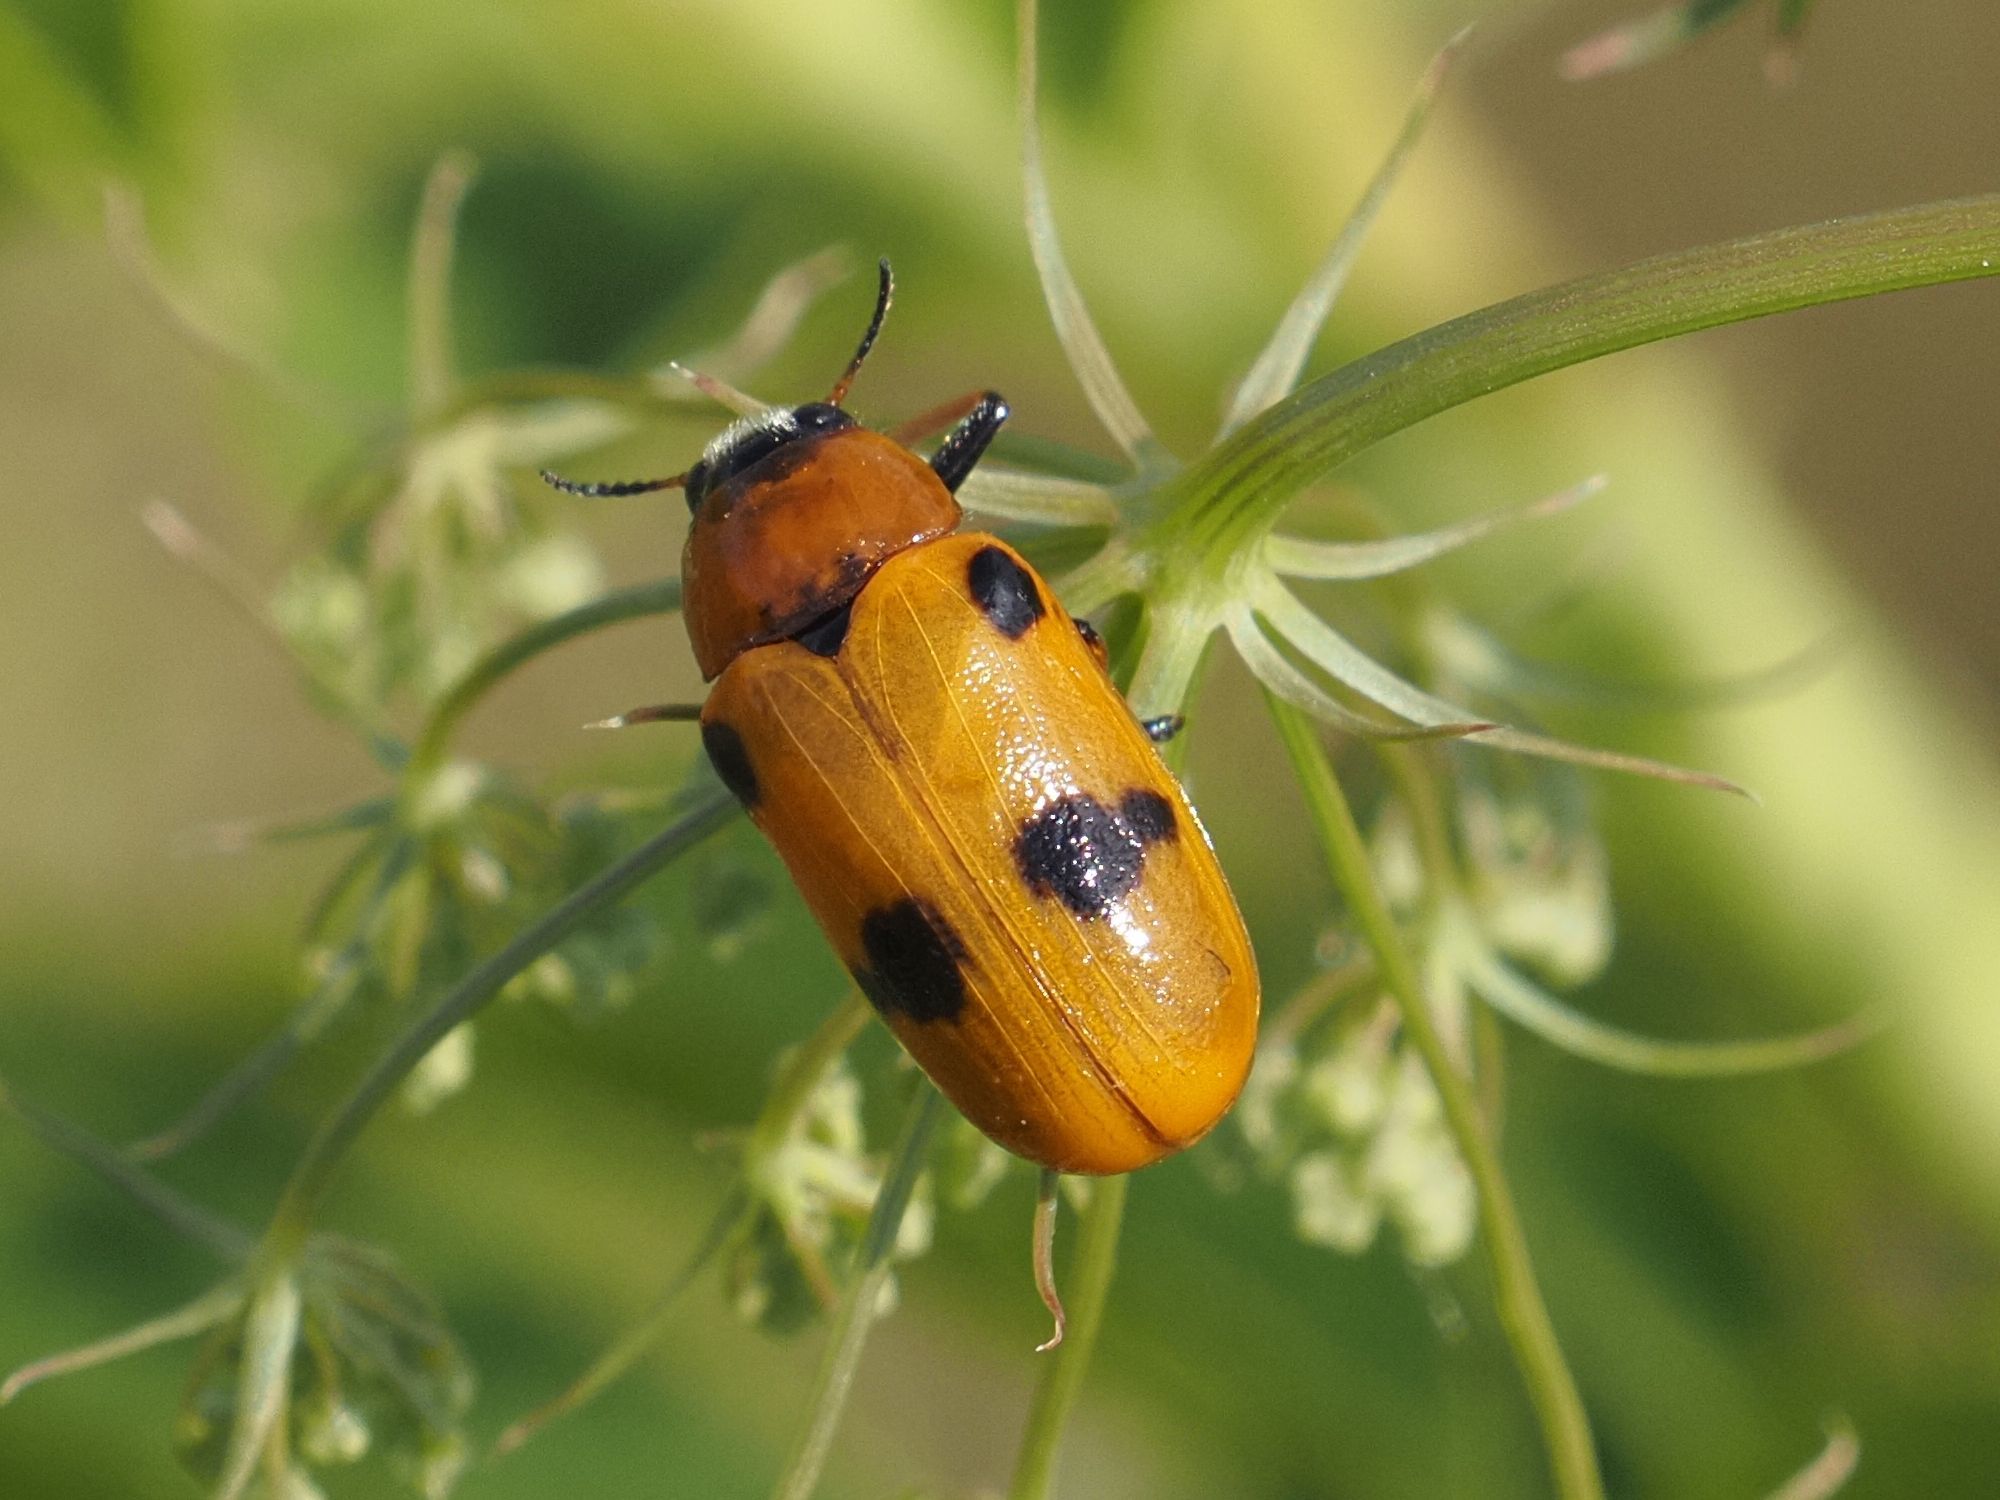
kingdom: Animalia
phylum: Arthropoda
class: Insecta
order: Coleoptera
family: Chrysomelidae
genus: Tituboea
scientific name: Tituboea macropus
